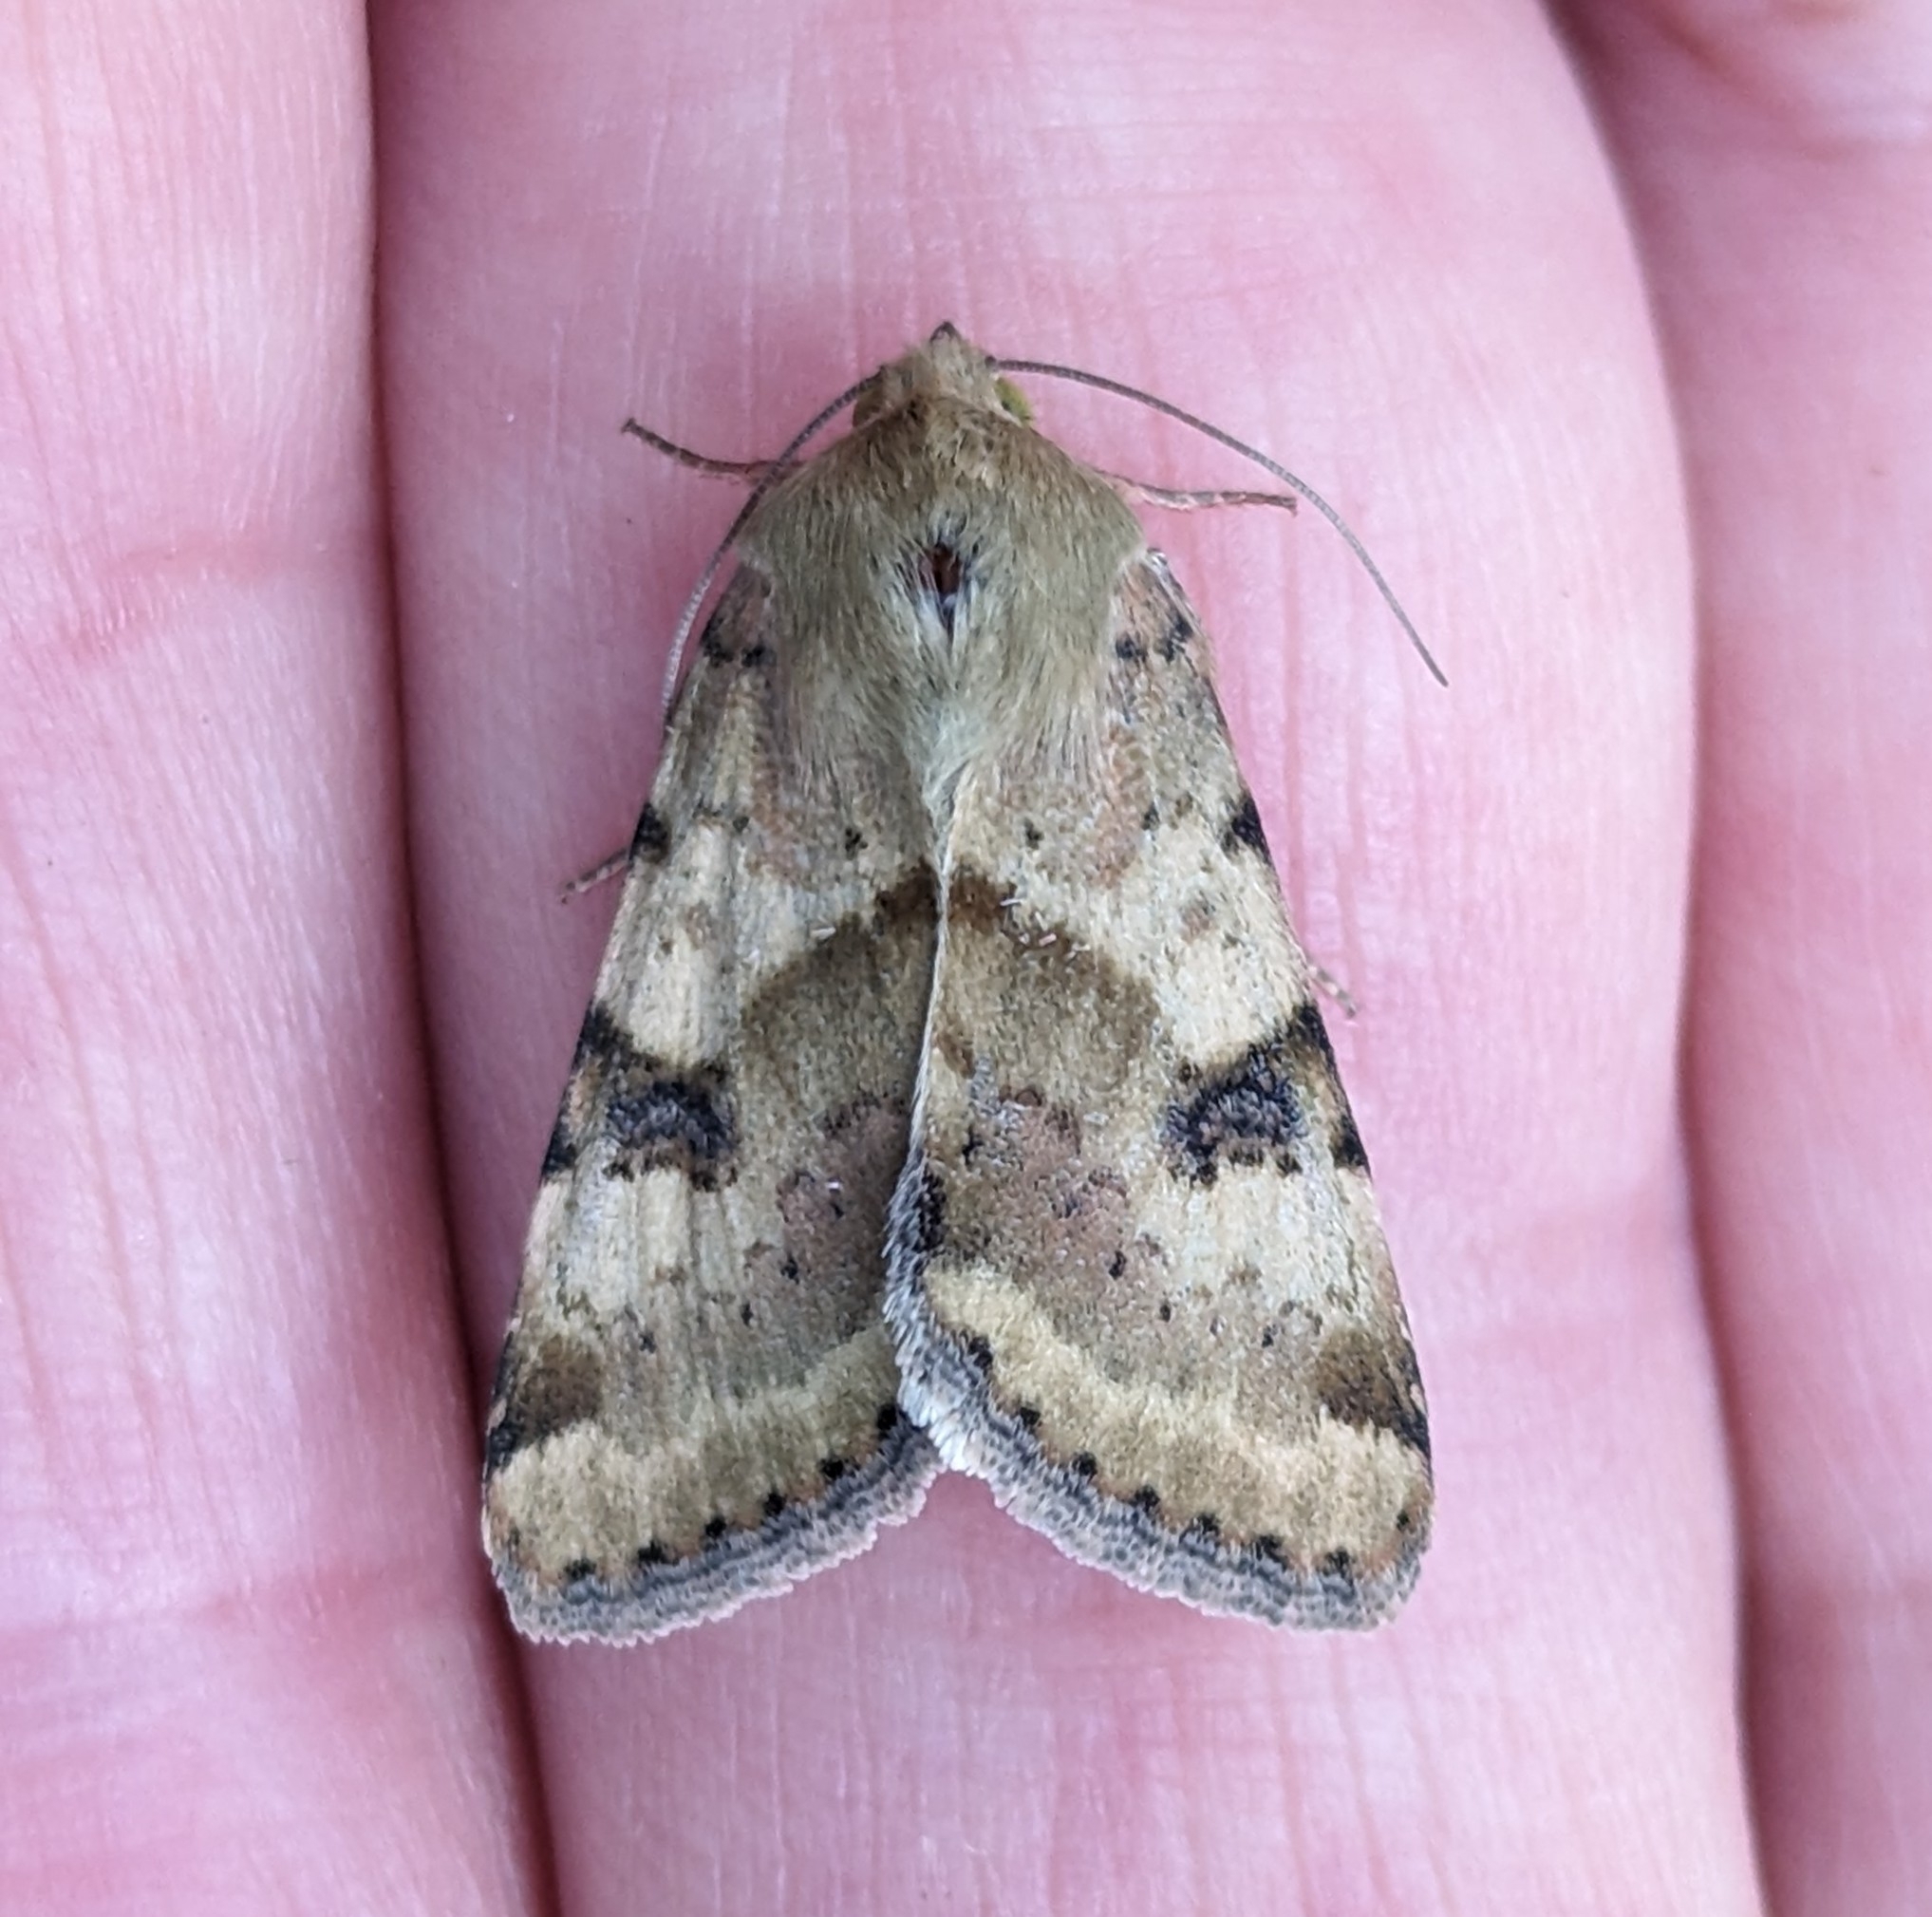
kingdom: Animalia
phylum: Arthropoda
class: Insecta
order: Lepidoptera
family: Noctuidae
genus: Heliothis
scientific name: Heliothis phloxiphaga
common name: Darker spotted straw moth
